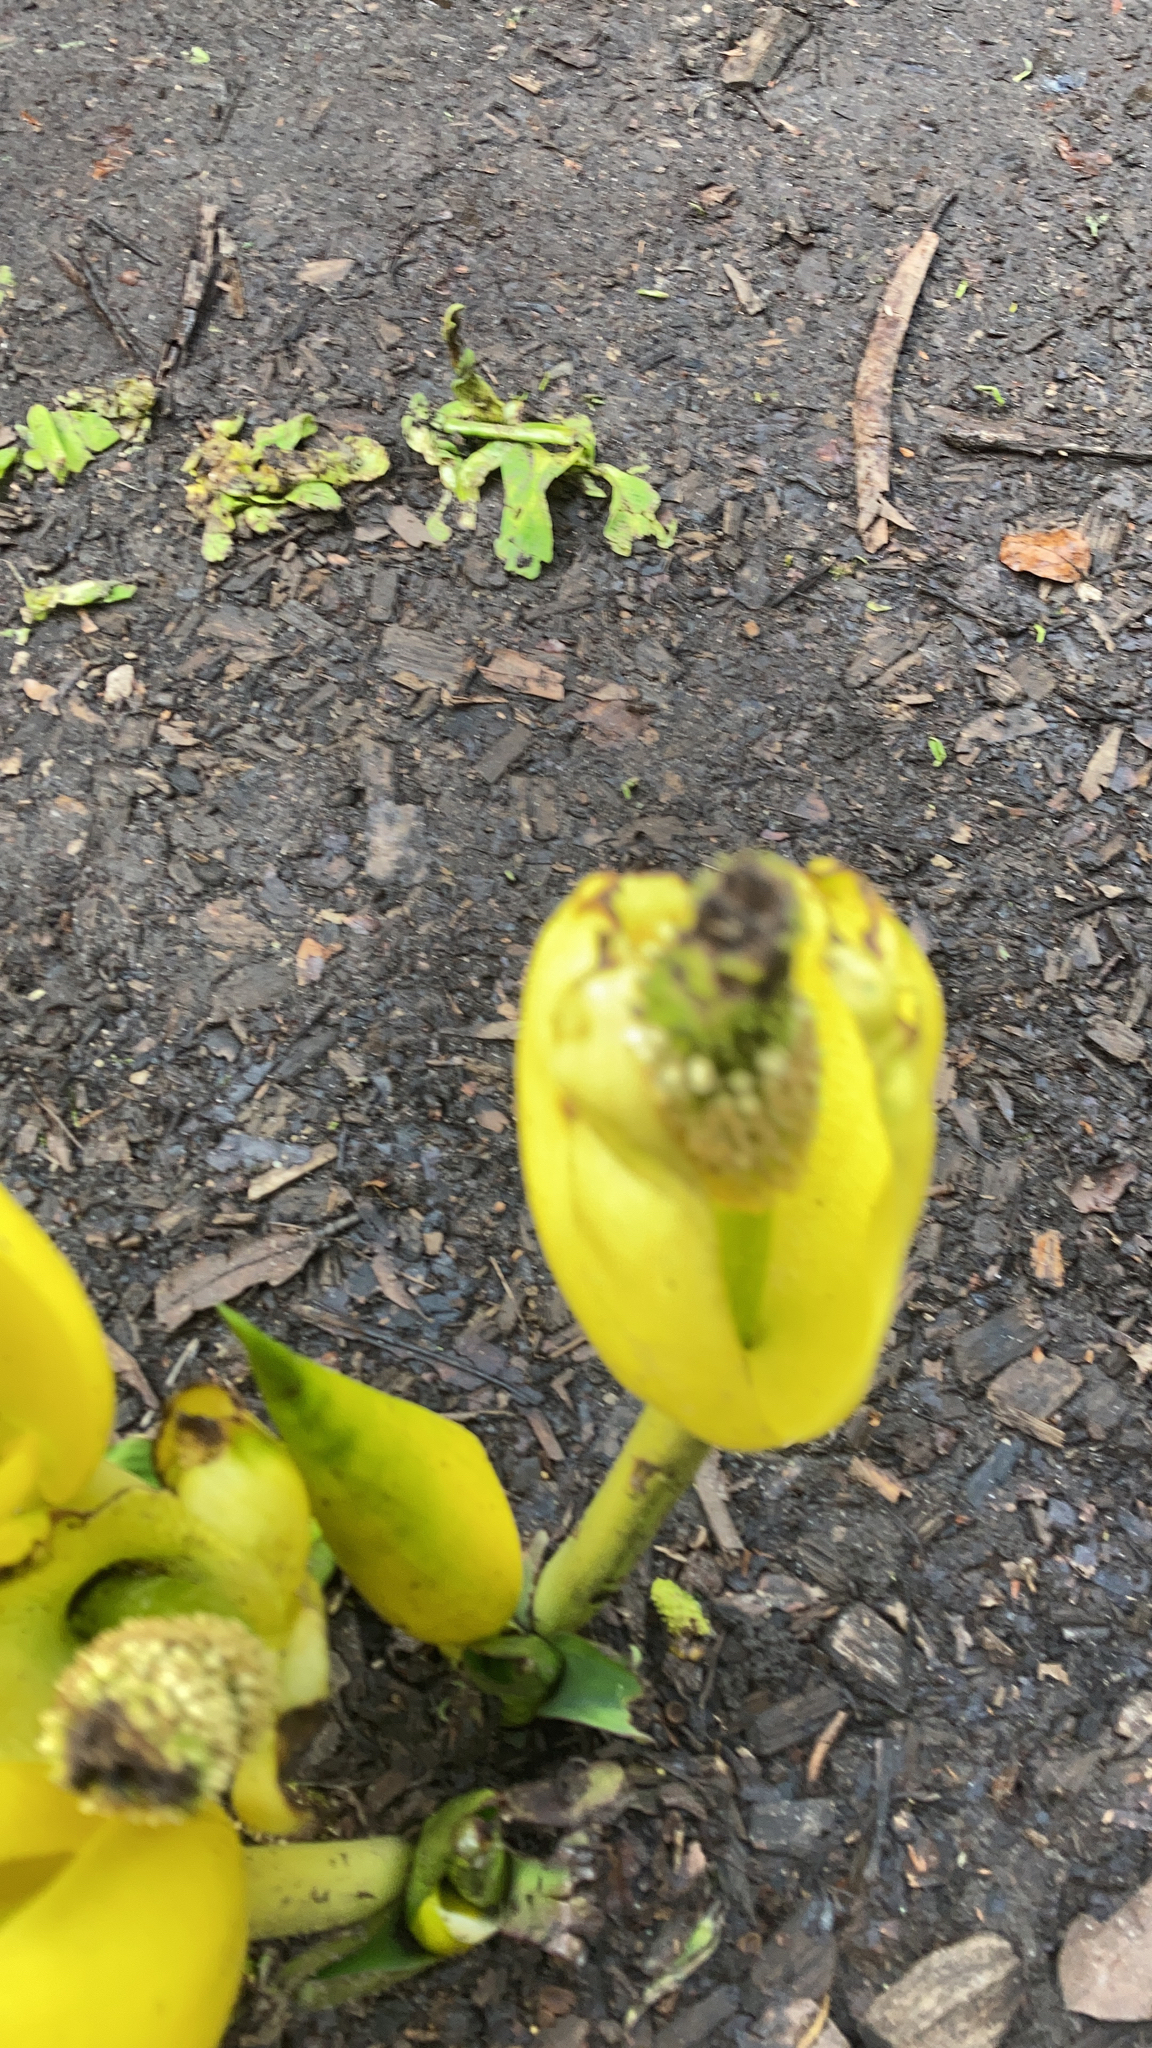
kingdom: Plantae
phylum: Tracheophyta
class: Liliopsida
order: Alismatales
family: Araceae
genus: Lysichiton
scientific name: Lysichiton americanus
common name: American skunk cabbage
